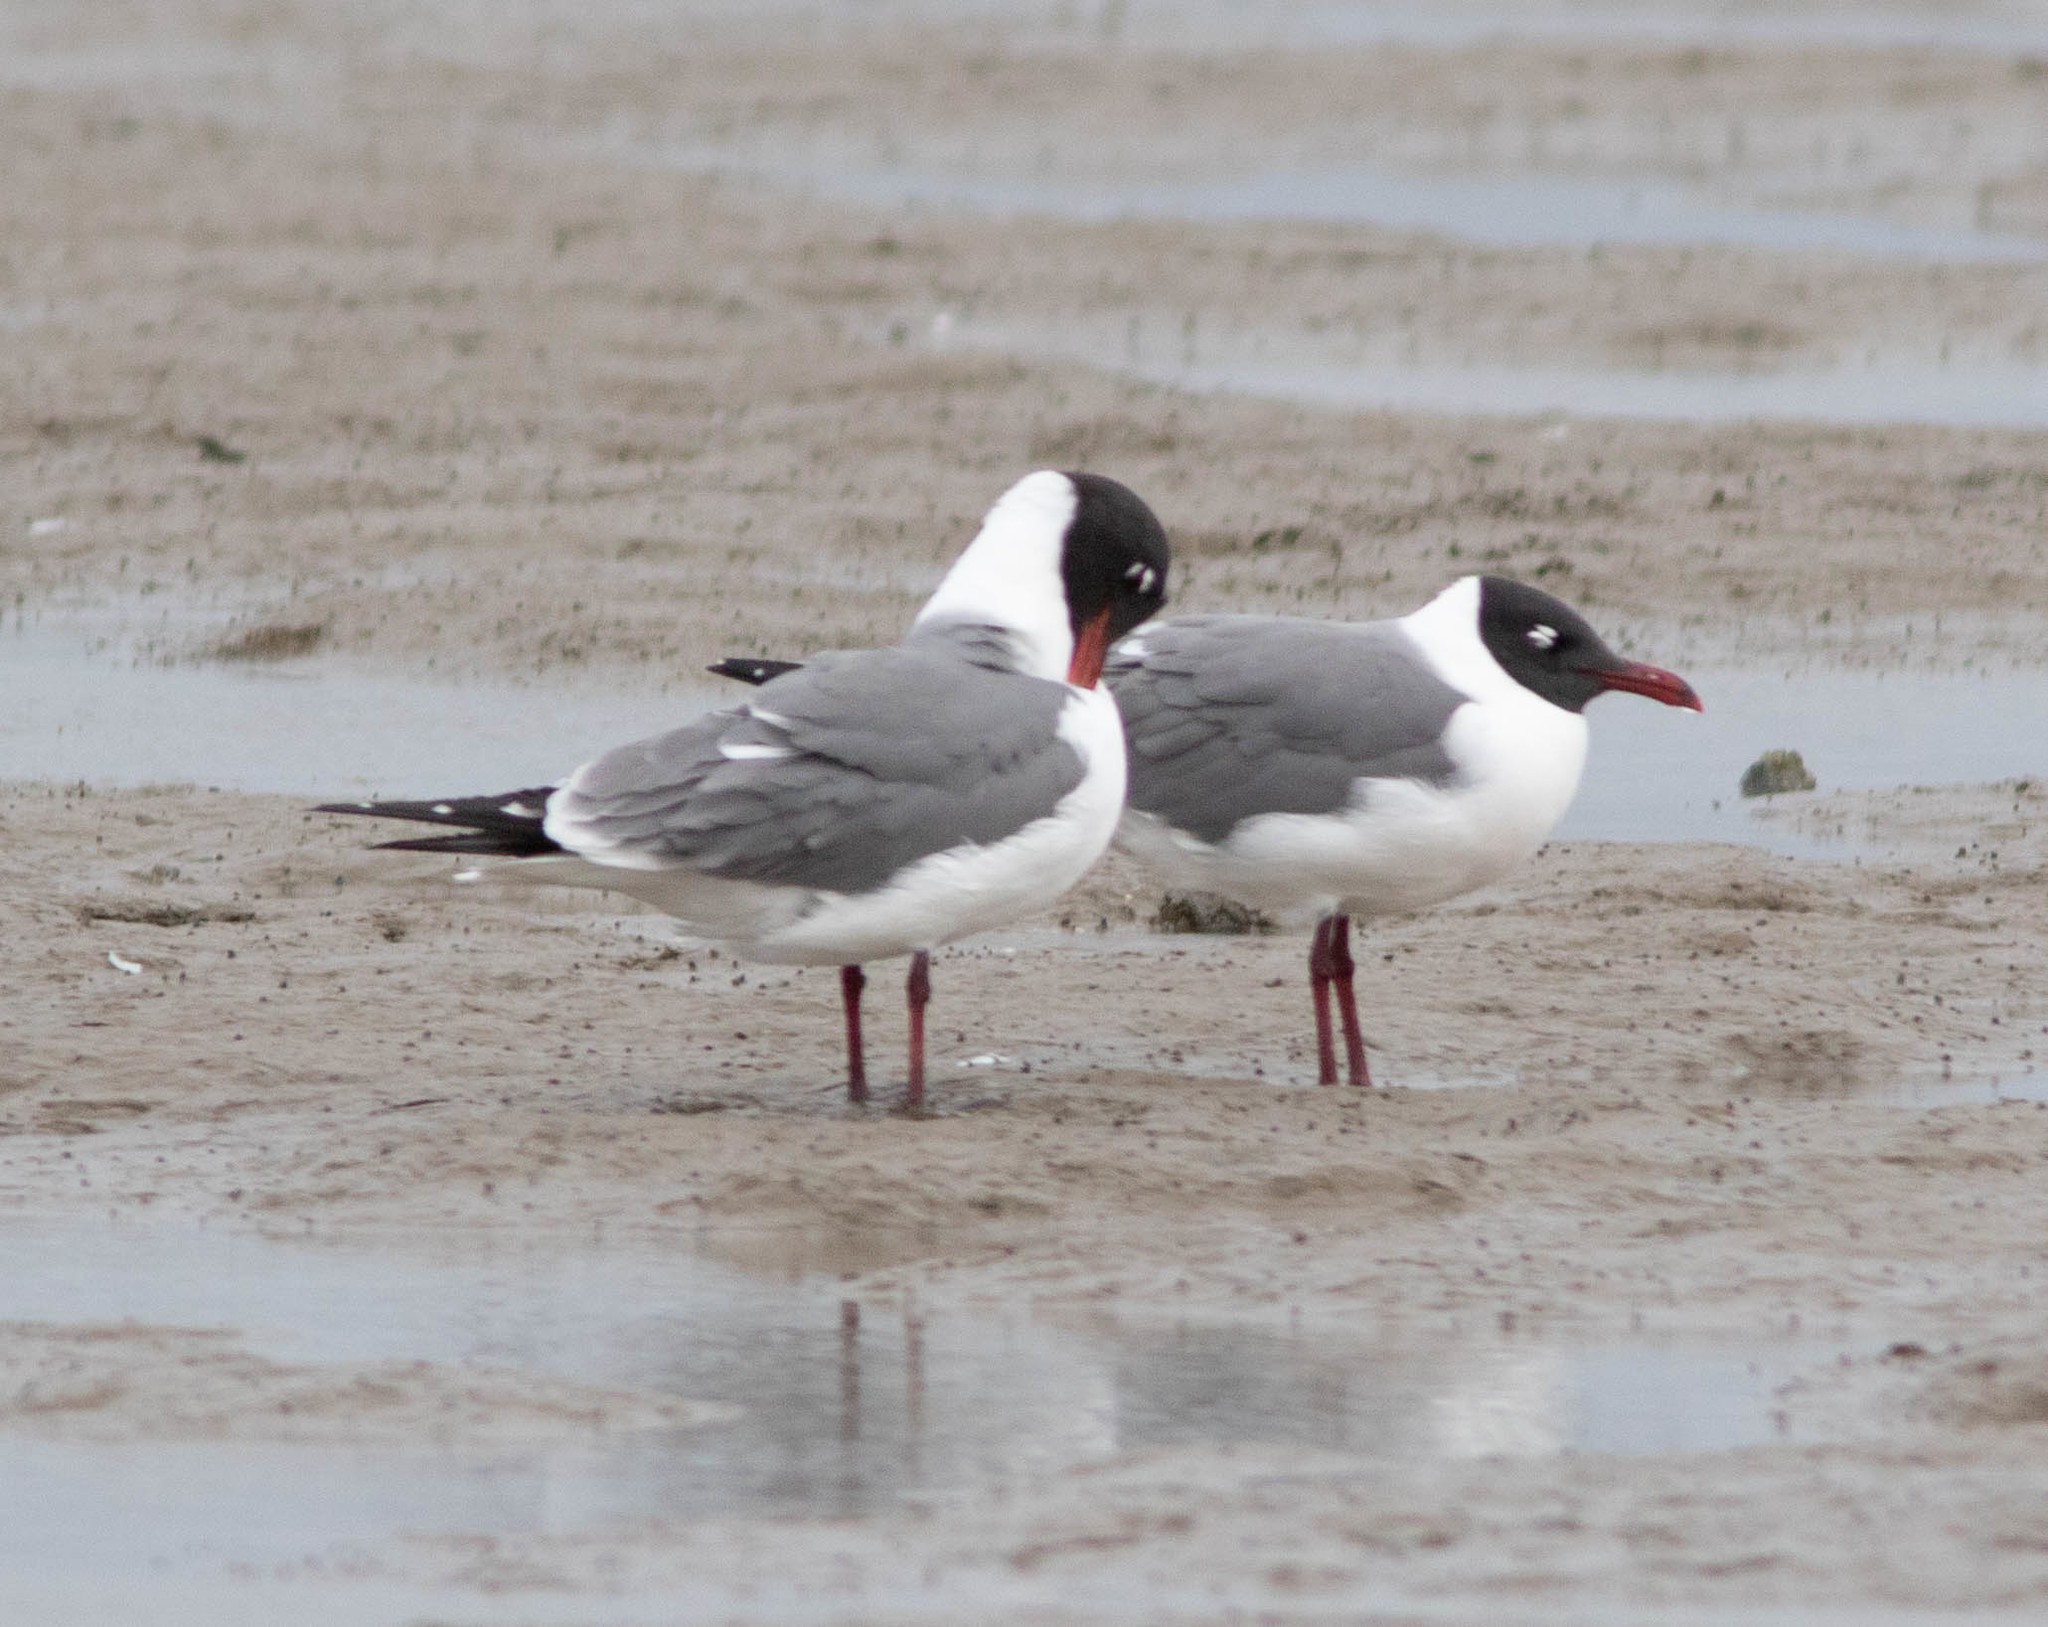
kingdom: Animalia
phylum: Chordata
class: Aves
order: Charadriiformes
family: Laridae
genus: Leucophaeus
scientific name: Leucophaeus atricilla
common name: Laughing gull
